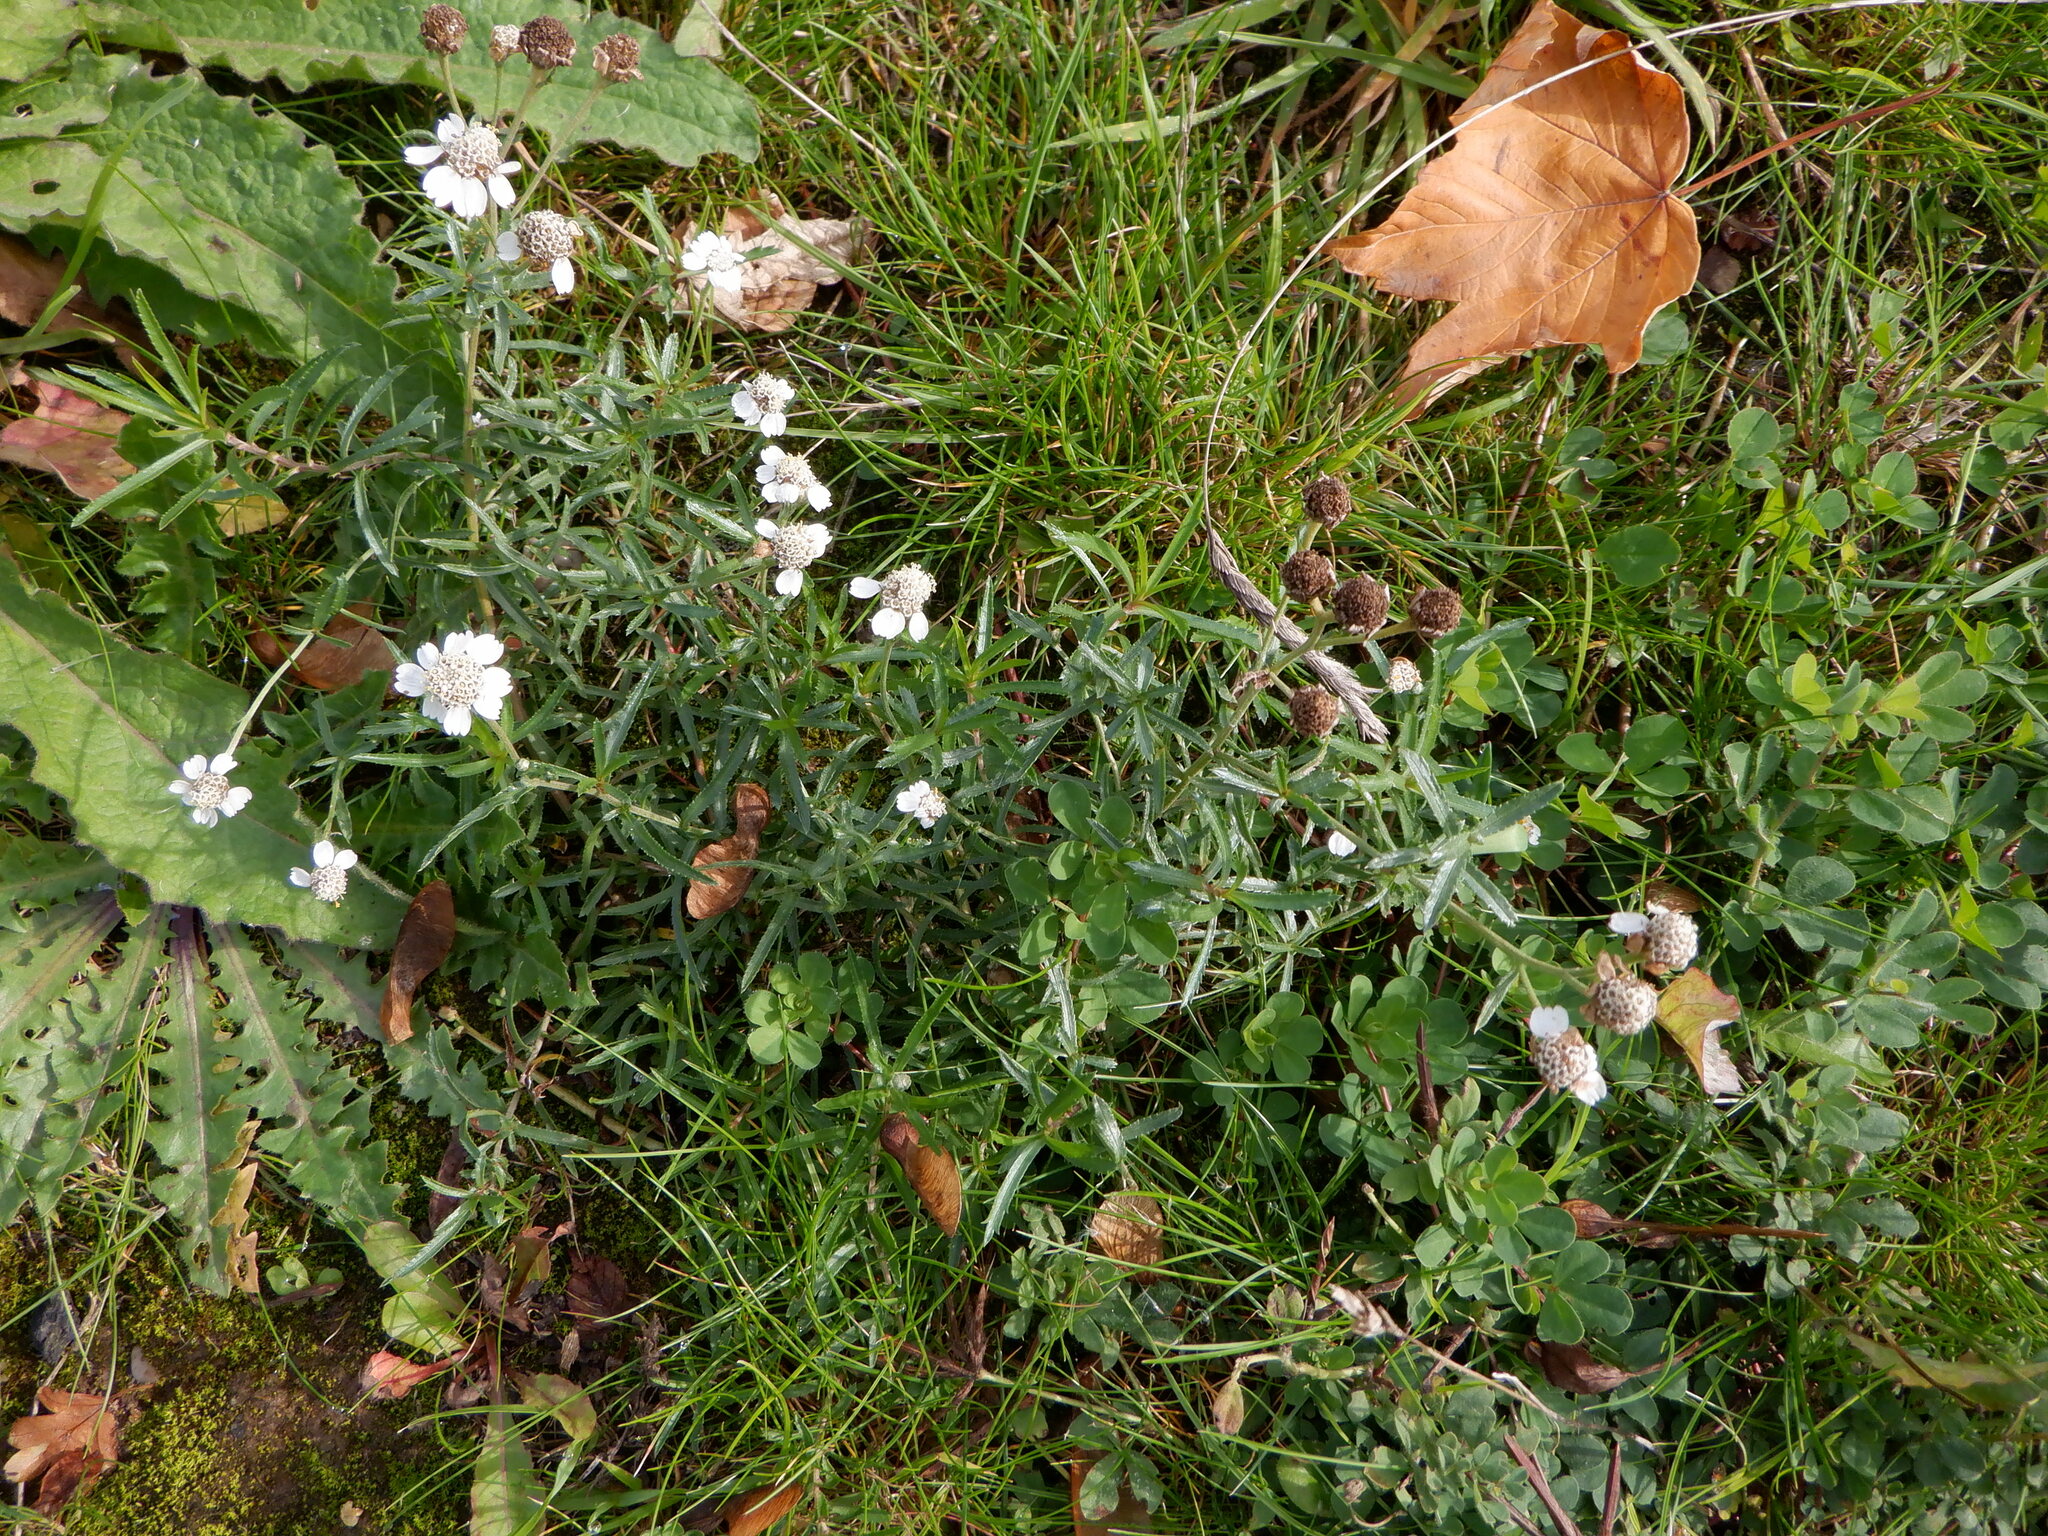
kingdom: Plantae
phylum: Tracheophyta
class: Magnoliopsida
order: Asterales
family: Asteraceae
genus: Achillea
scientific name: Achillea ptarmica
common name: Sneezeweed
